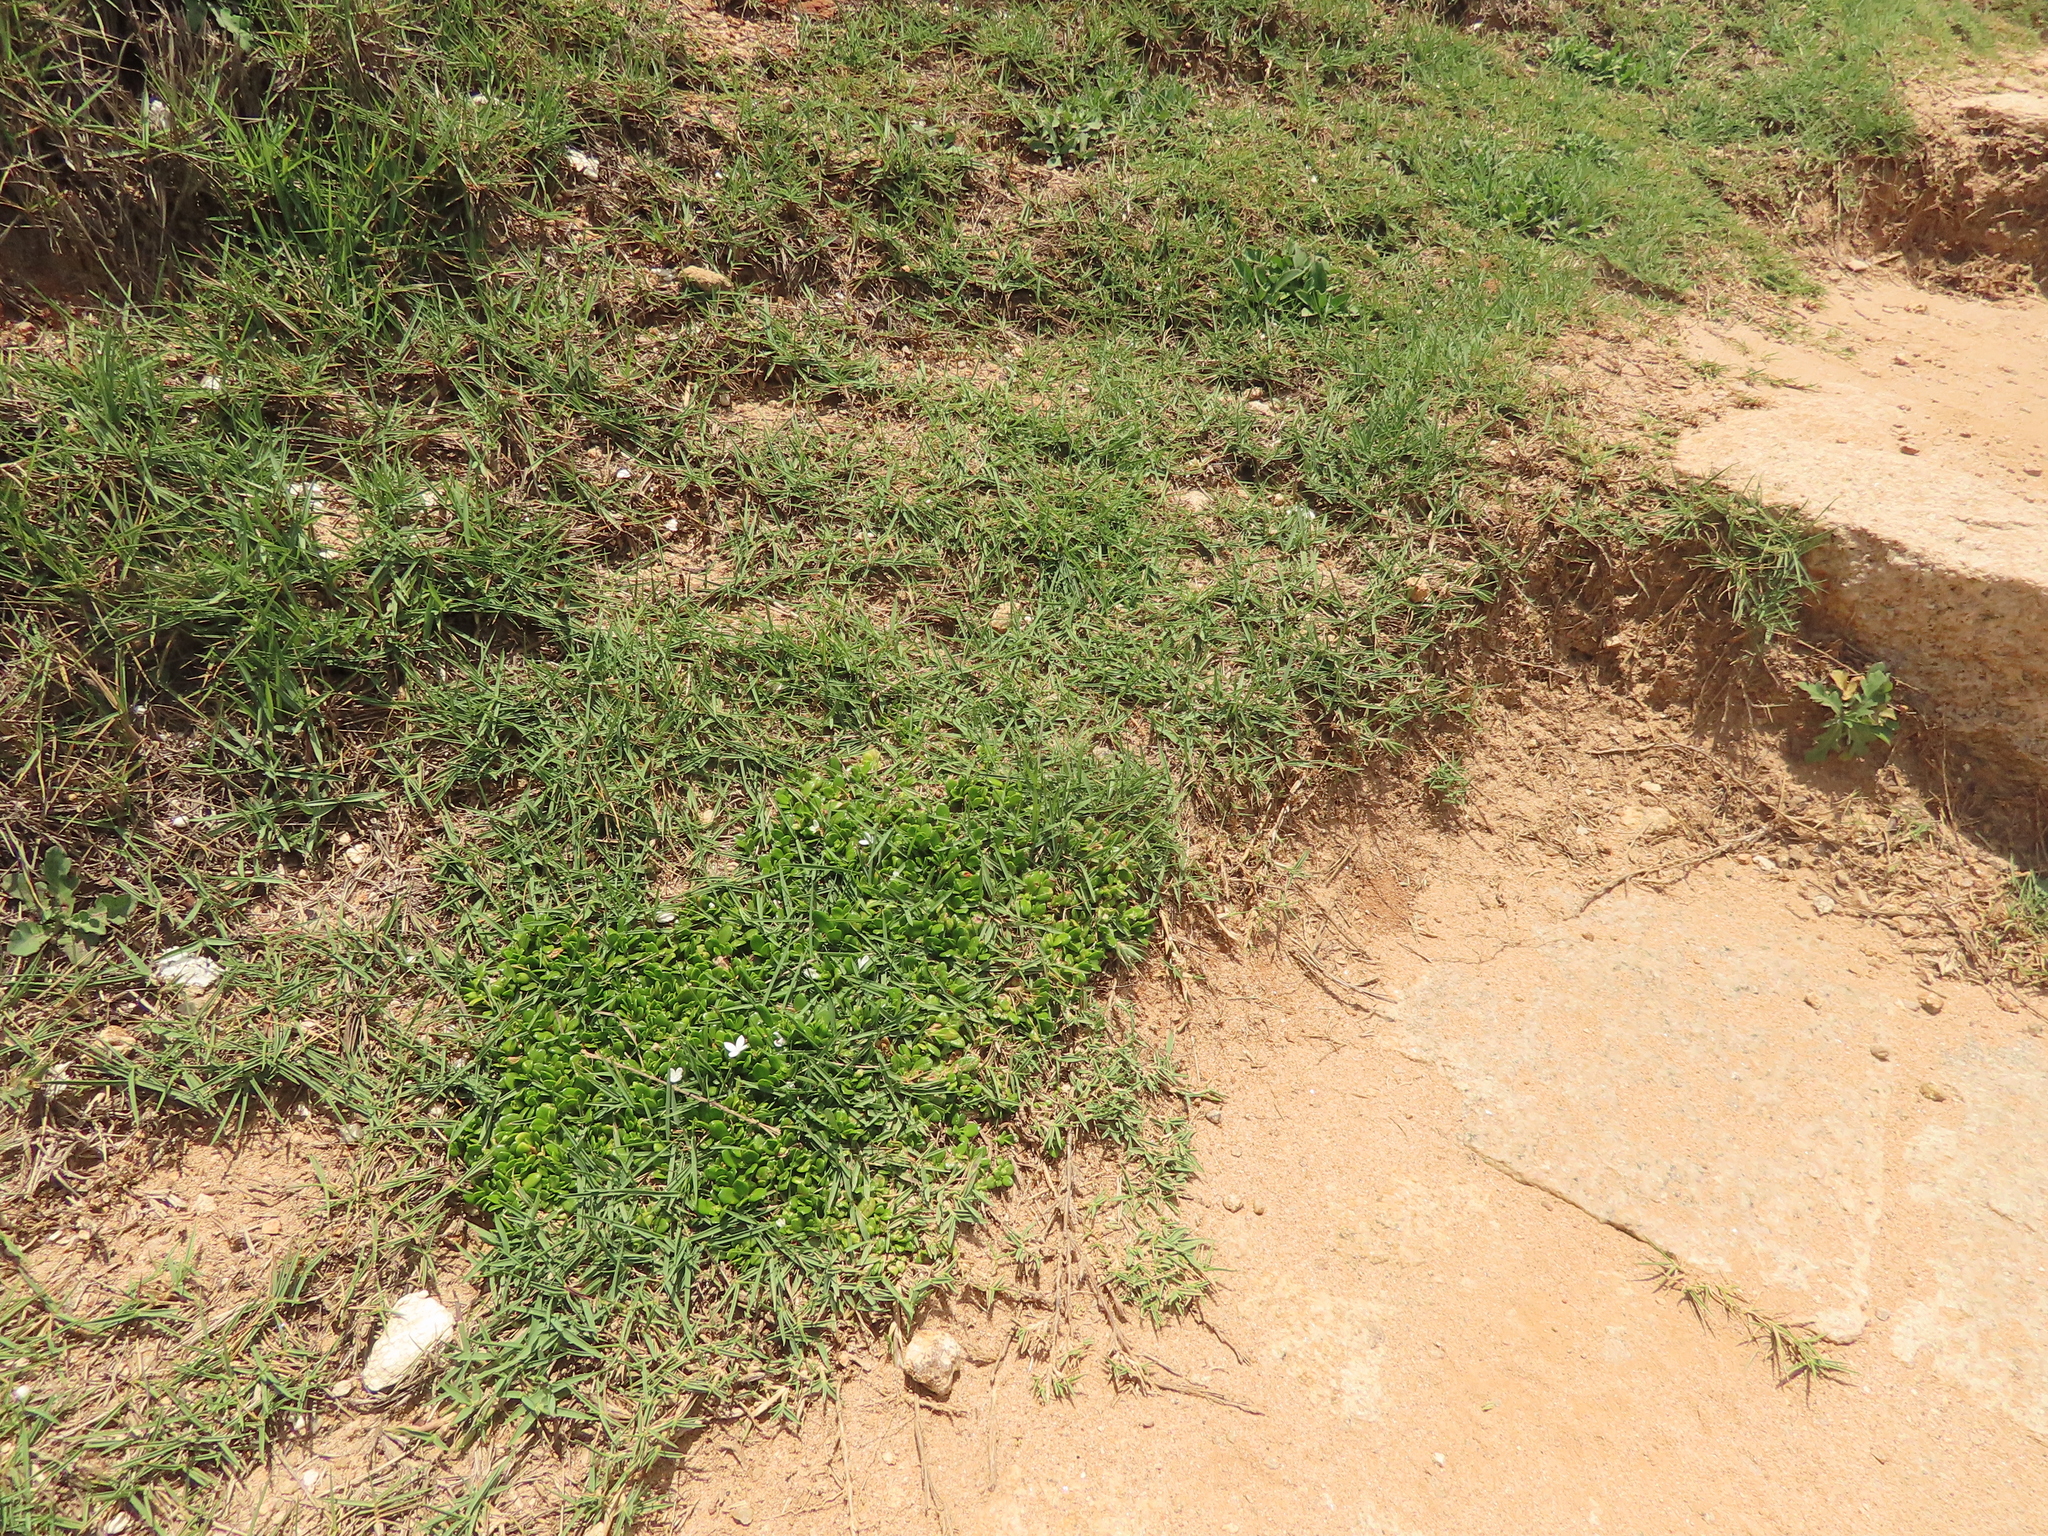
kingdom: Plantae
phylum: Tracheophyta
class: Magnoliopsida
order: Gentianales
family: Rubiaceae
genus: Leptopetalum
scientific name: Leptopetalum strigulosum
